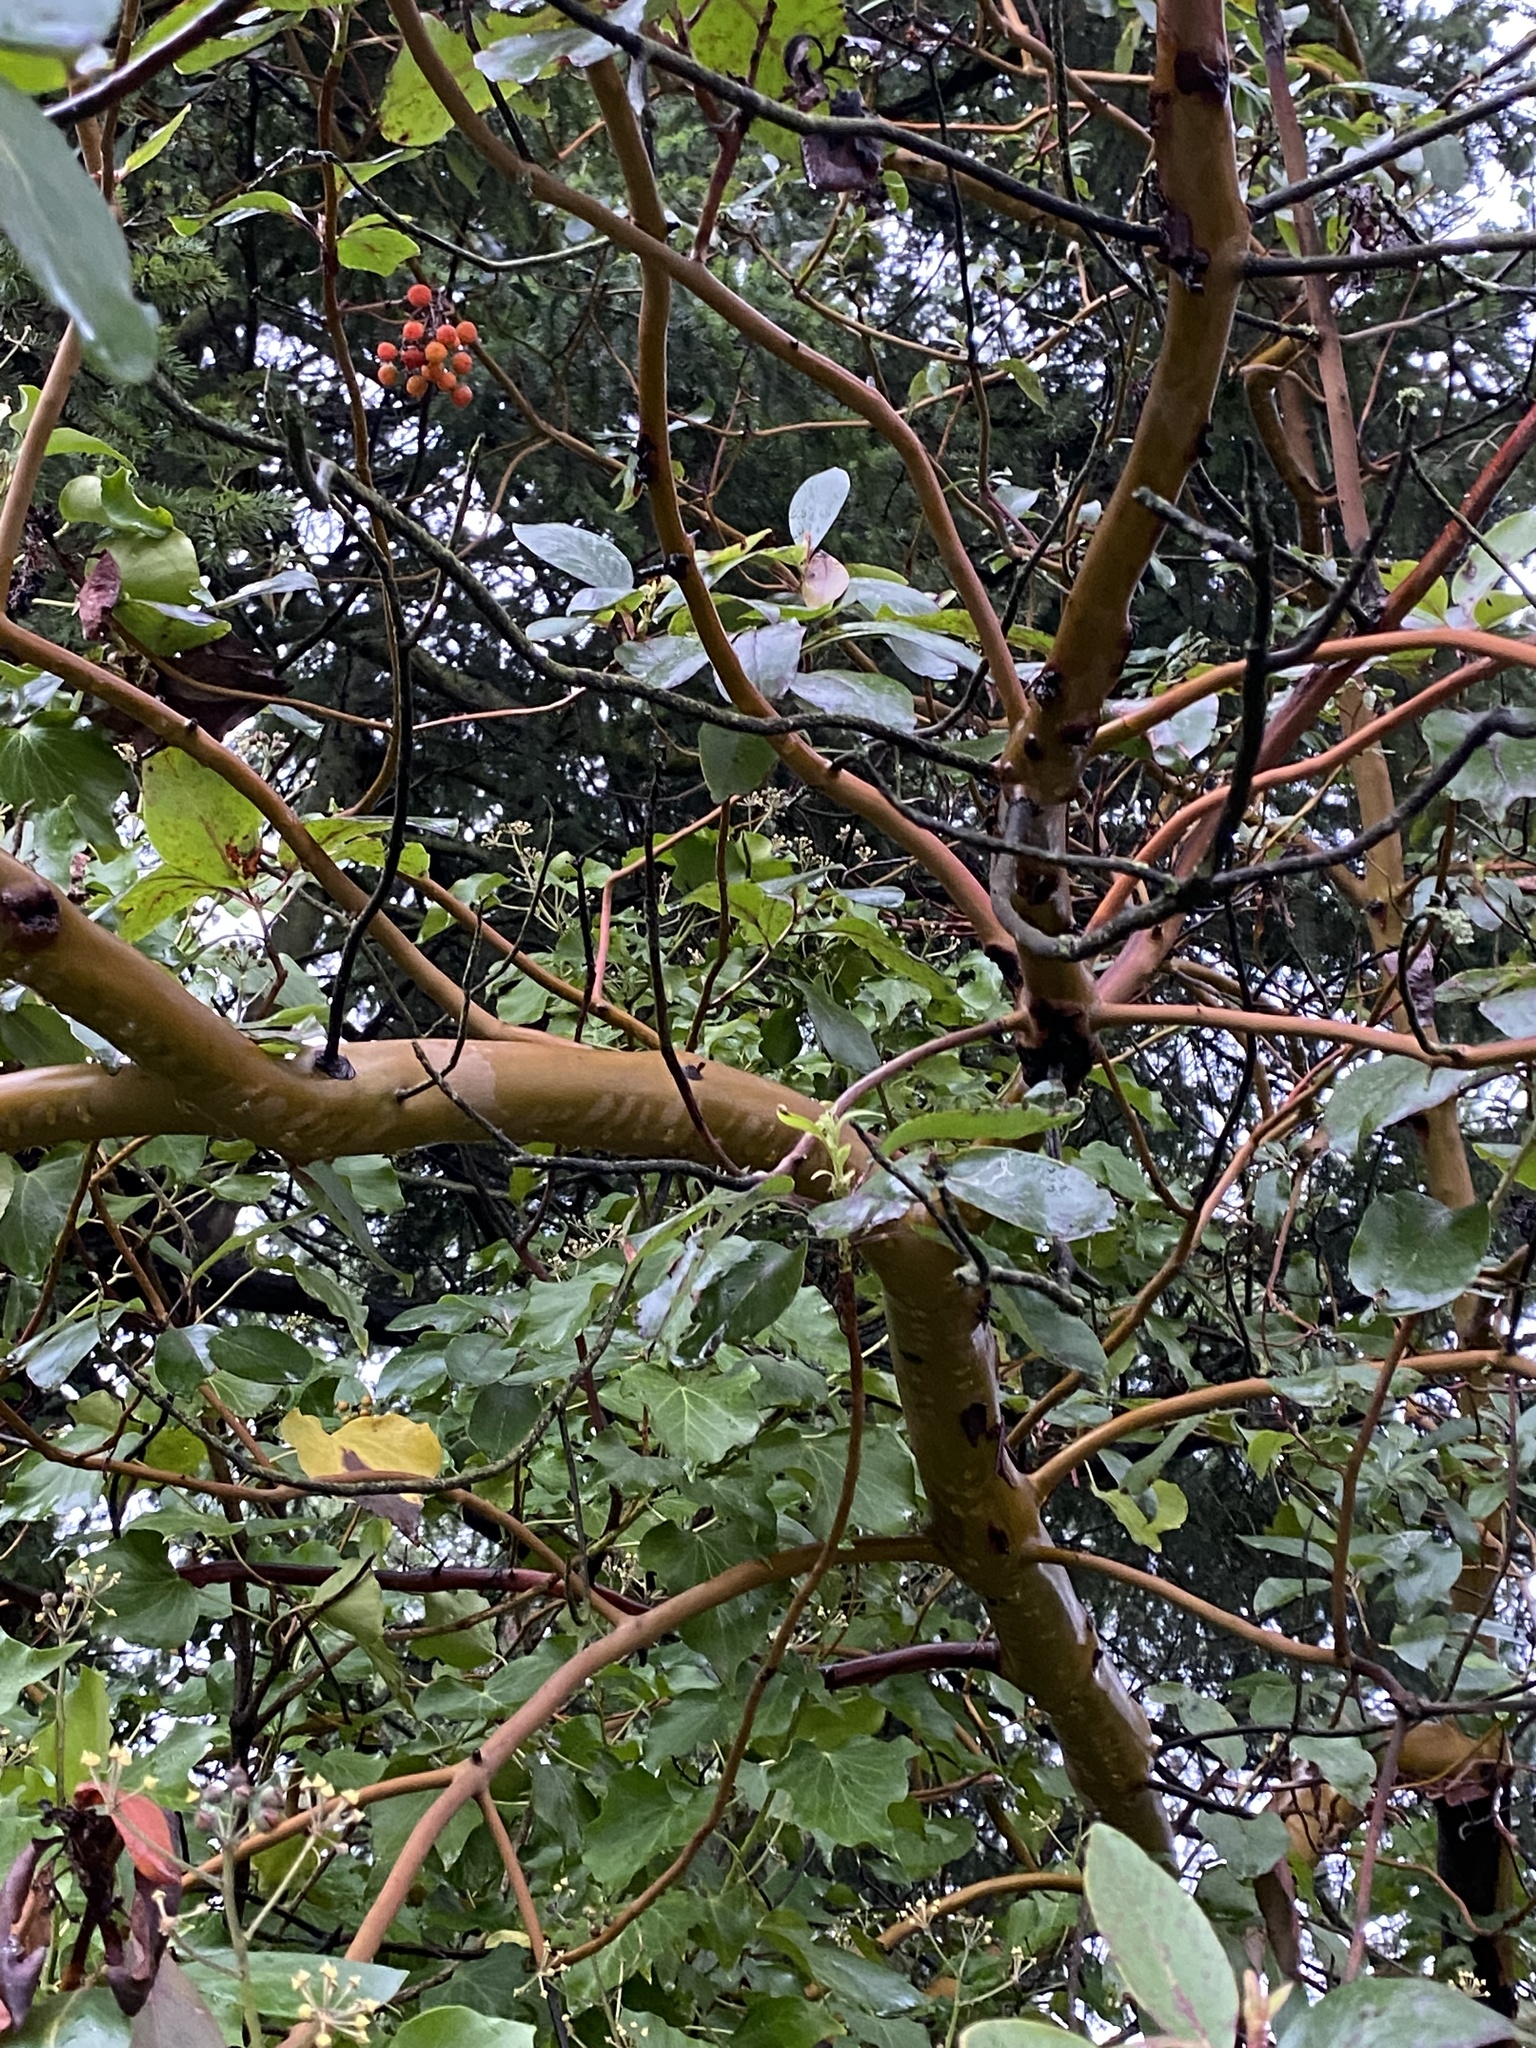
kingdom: Plantae
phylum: Tracheophyta
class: Magnoliopsida
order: Ericales
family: Ericaceae
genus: Arbutus
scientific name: Arbutus menziesii
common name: Pacific madrone
